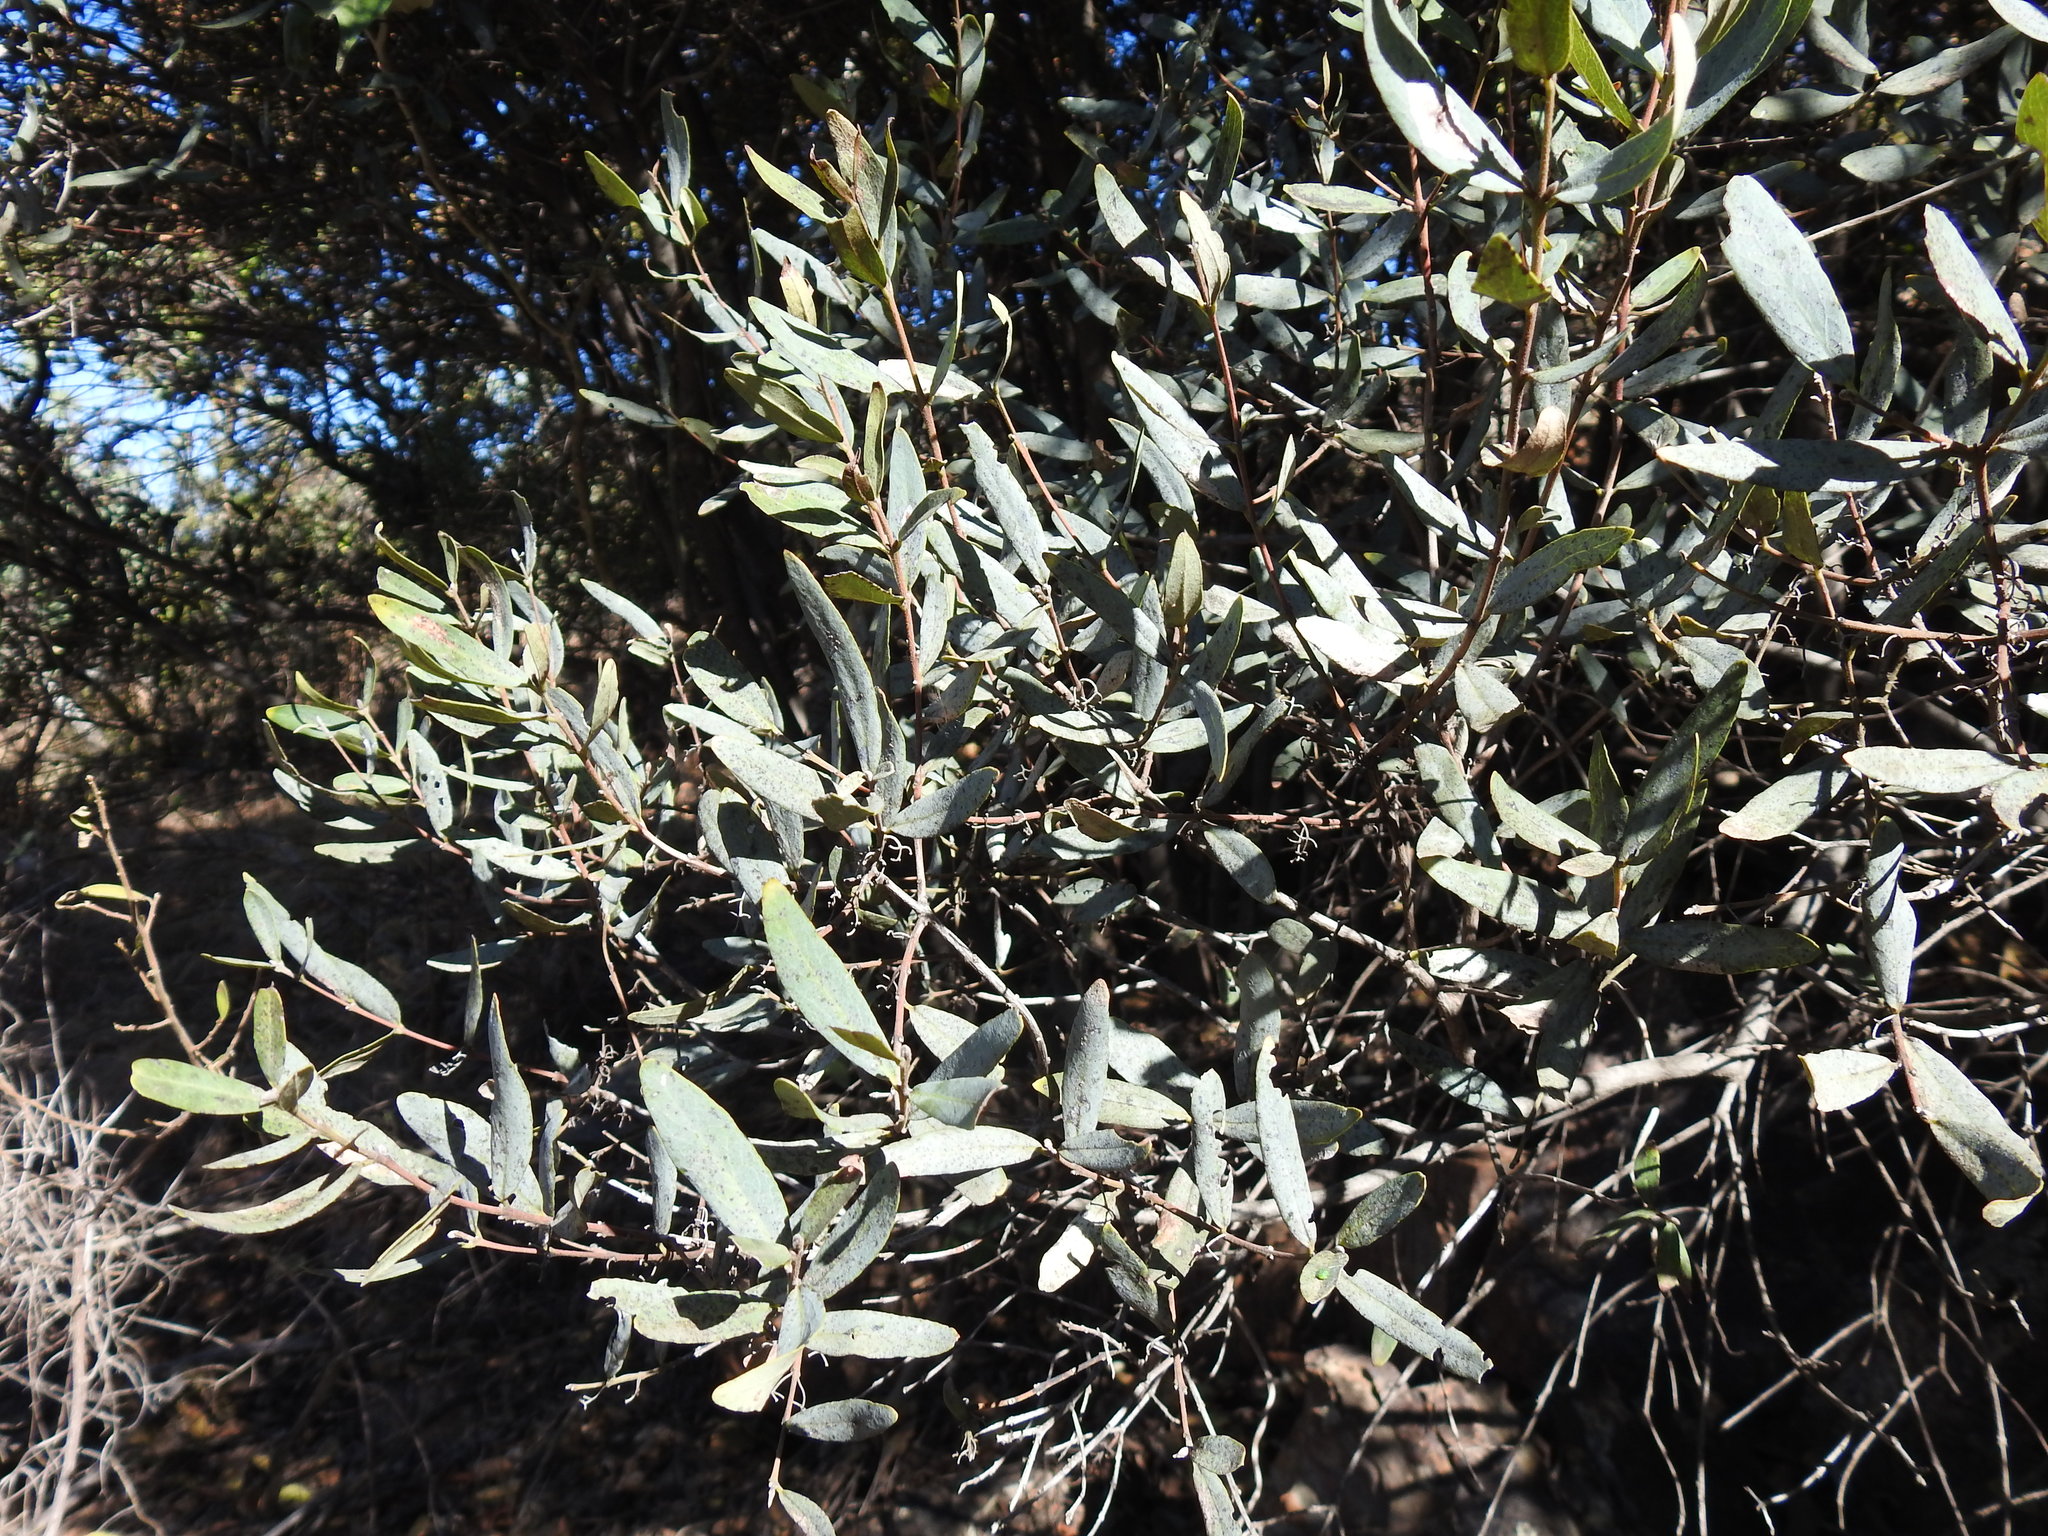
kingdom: Plantae
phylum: Tracheophyta
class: Magnoliopsida
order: Ericales
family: Ebenaceae
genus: Euclea
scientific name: Euclea crispa
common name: Blue guarri
